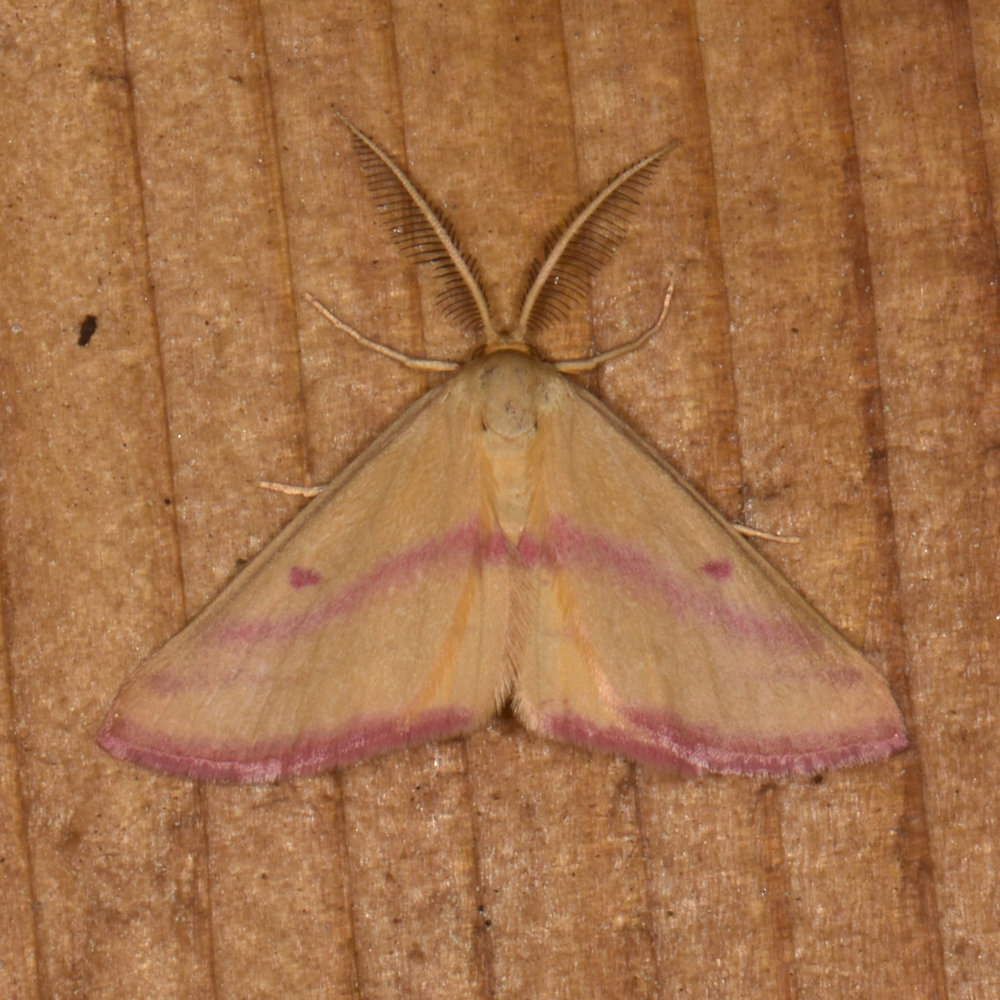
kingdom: Animalia
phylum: Arthropoda
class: Insecta
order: Lepidoptera
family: Geometridae
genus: Haematopis
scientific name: Haematopis grataria
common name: Chickweed geometer
